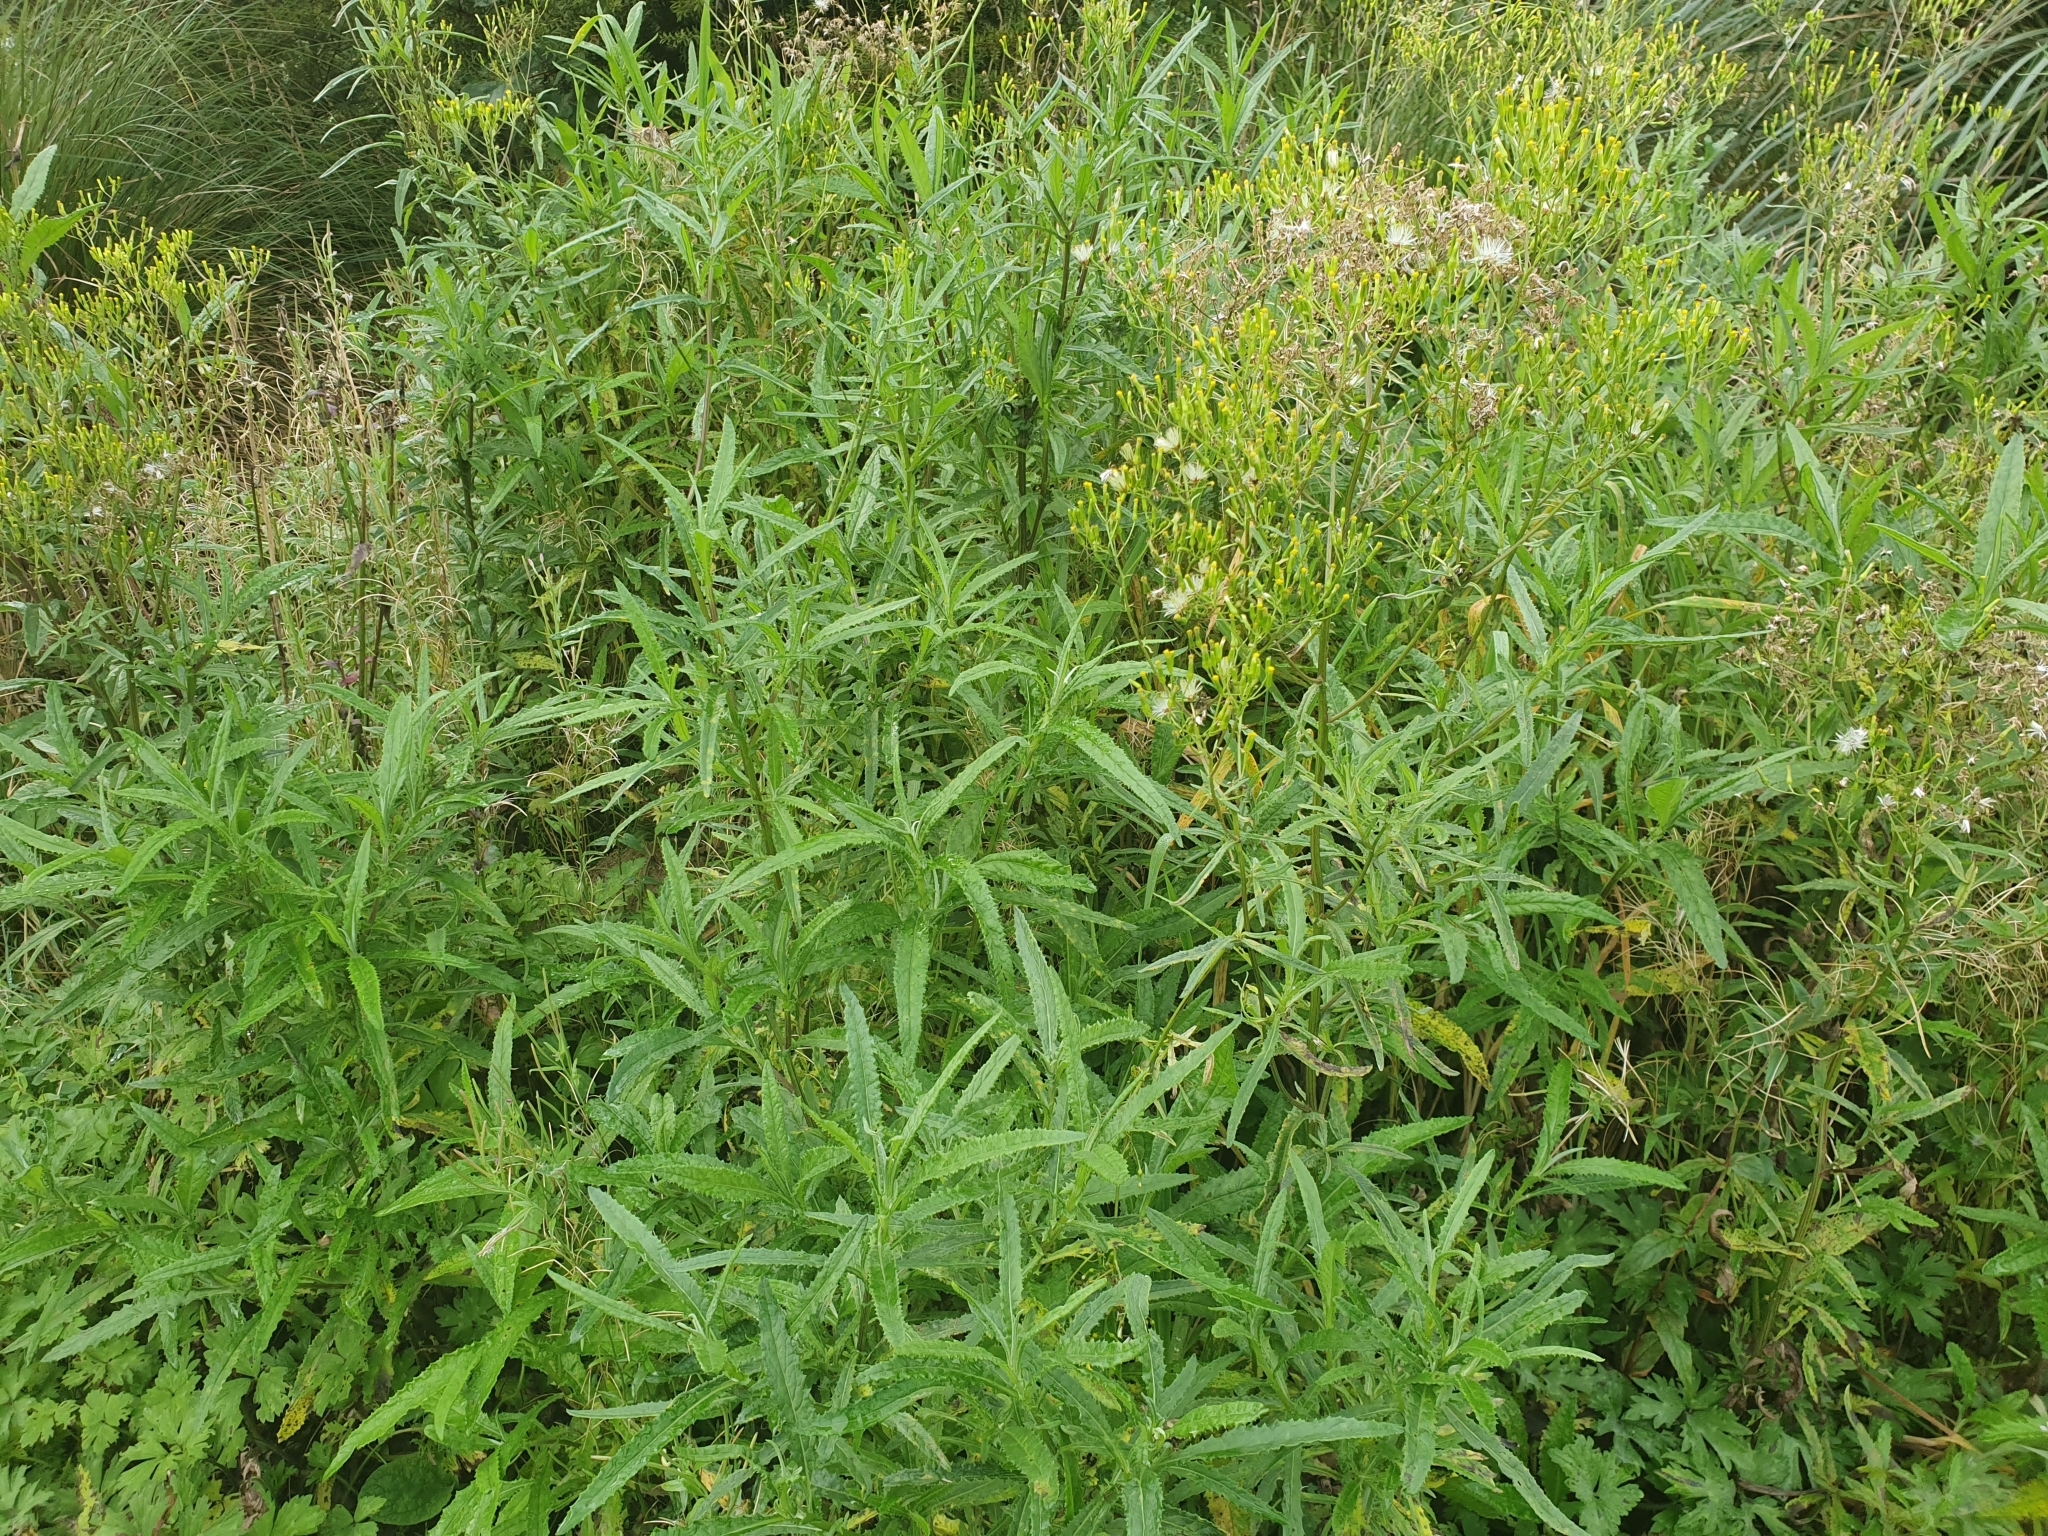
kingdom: Plantae
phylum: Tracheophyta
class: Magnoliopsida
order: Asterales
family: Asteraceae
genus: Senecio
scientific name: Senecio minimus
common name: Toothed fireweed
